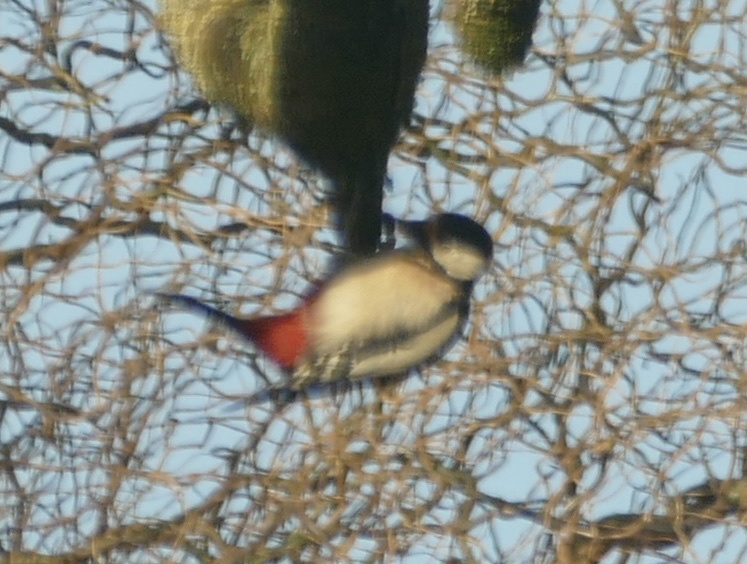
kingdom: Animalia
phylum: Chordata
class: Aves
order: Piciformes
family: Picidae
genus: Dendrocopos
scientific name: Dendrocopos major
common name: Great spotted woodpecker
